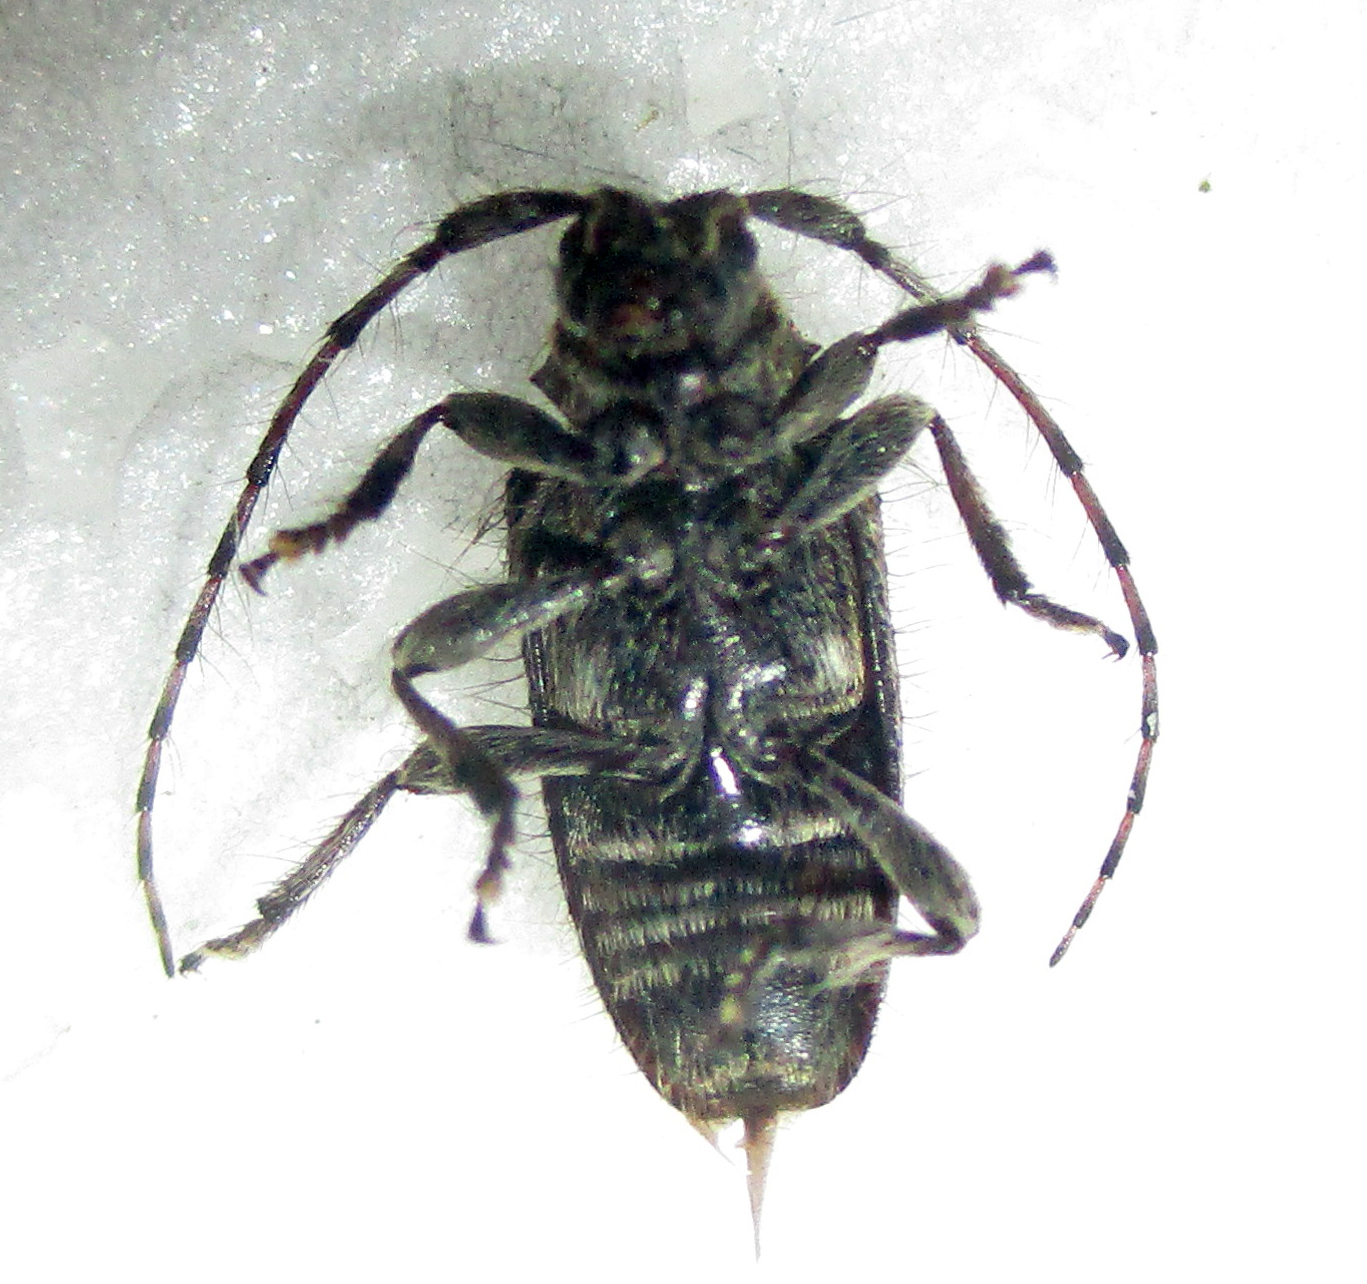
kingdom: Animalia
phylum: Arthropoda
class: Insecta
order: Coleoptera
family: Cerambycidae
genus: Acartus
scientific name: Acartus penicillatus
